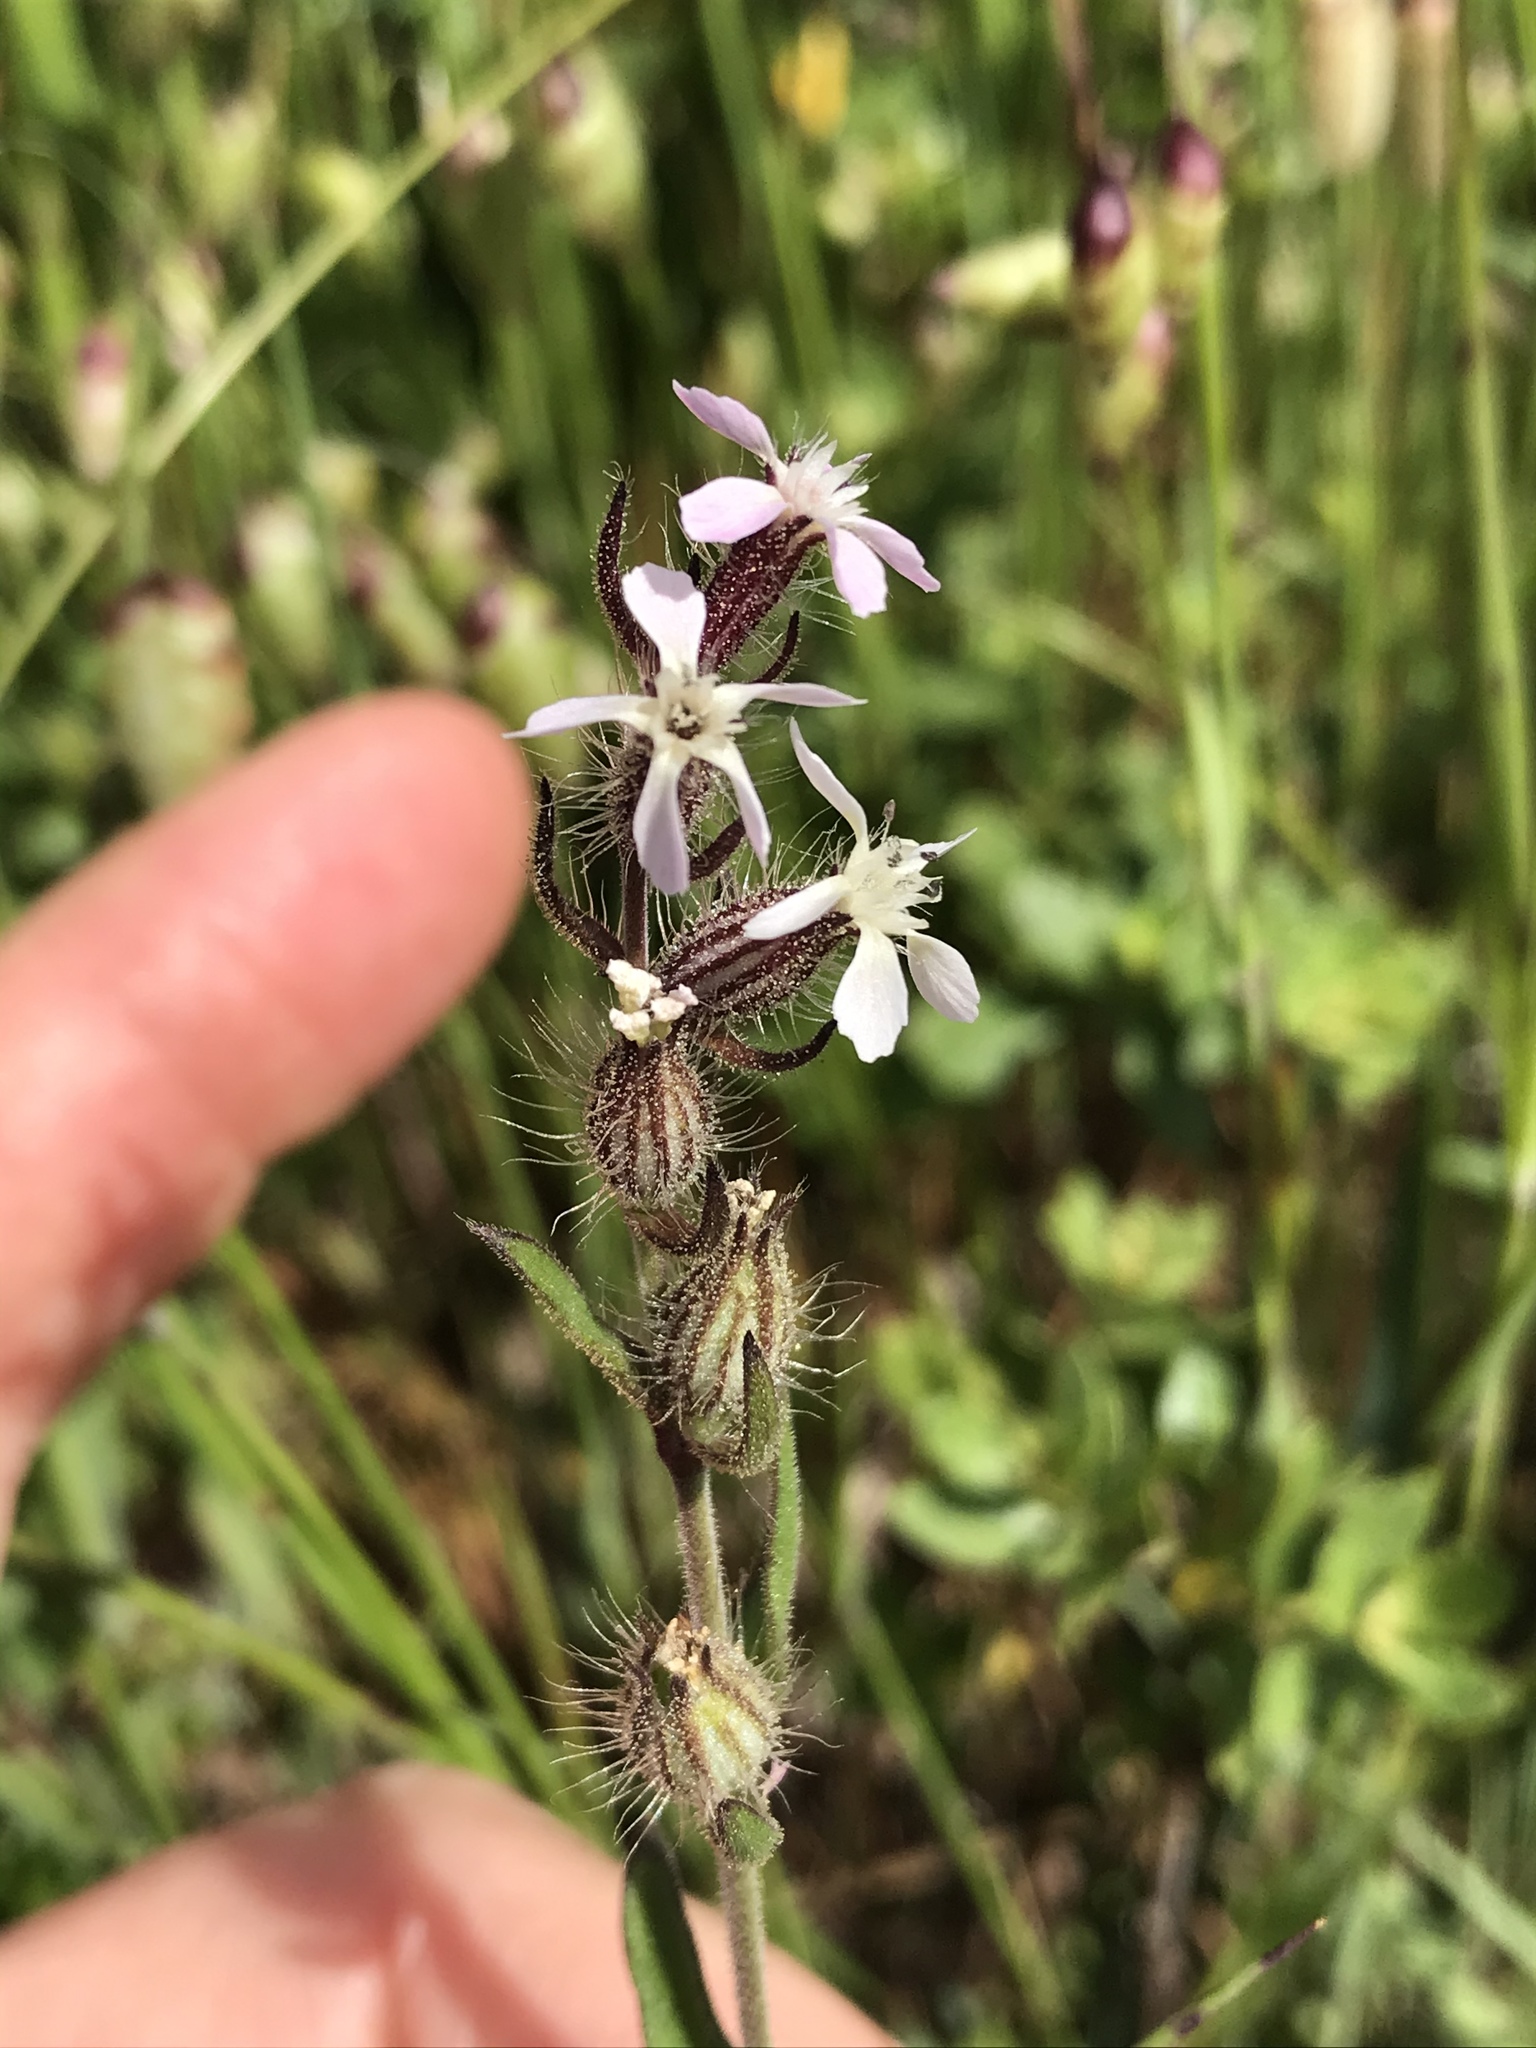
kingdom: Plantae
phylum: Tracheophyta
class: Magnoliopsida
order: Caryophyllales
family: Caryophyllaceae
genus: Silene
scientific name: Silene gallica
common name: Small-flowered catchfly
